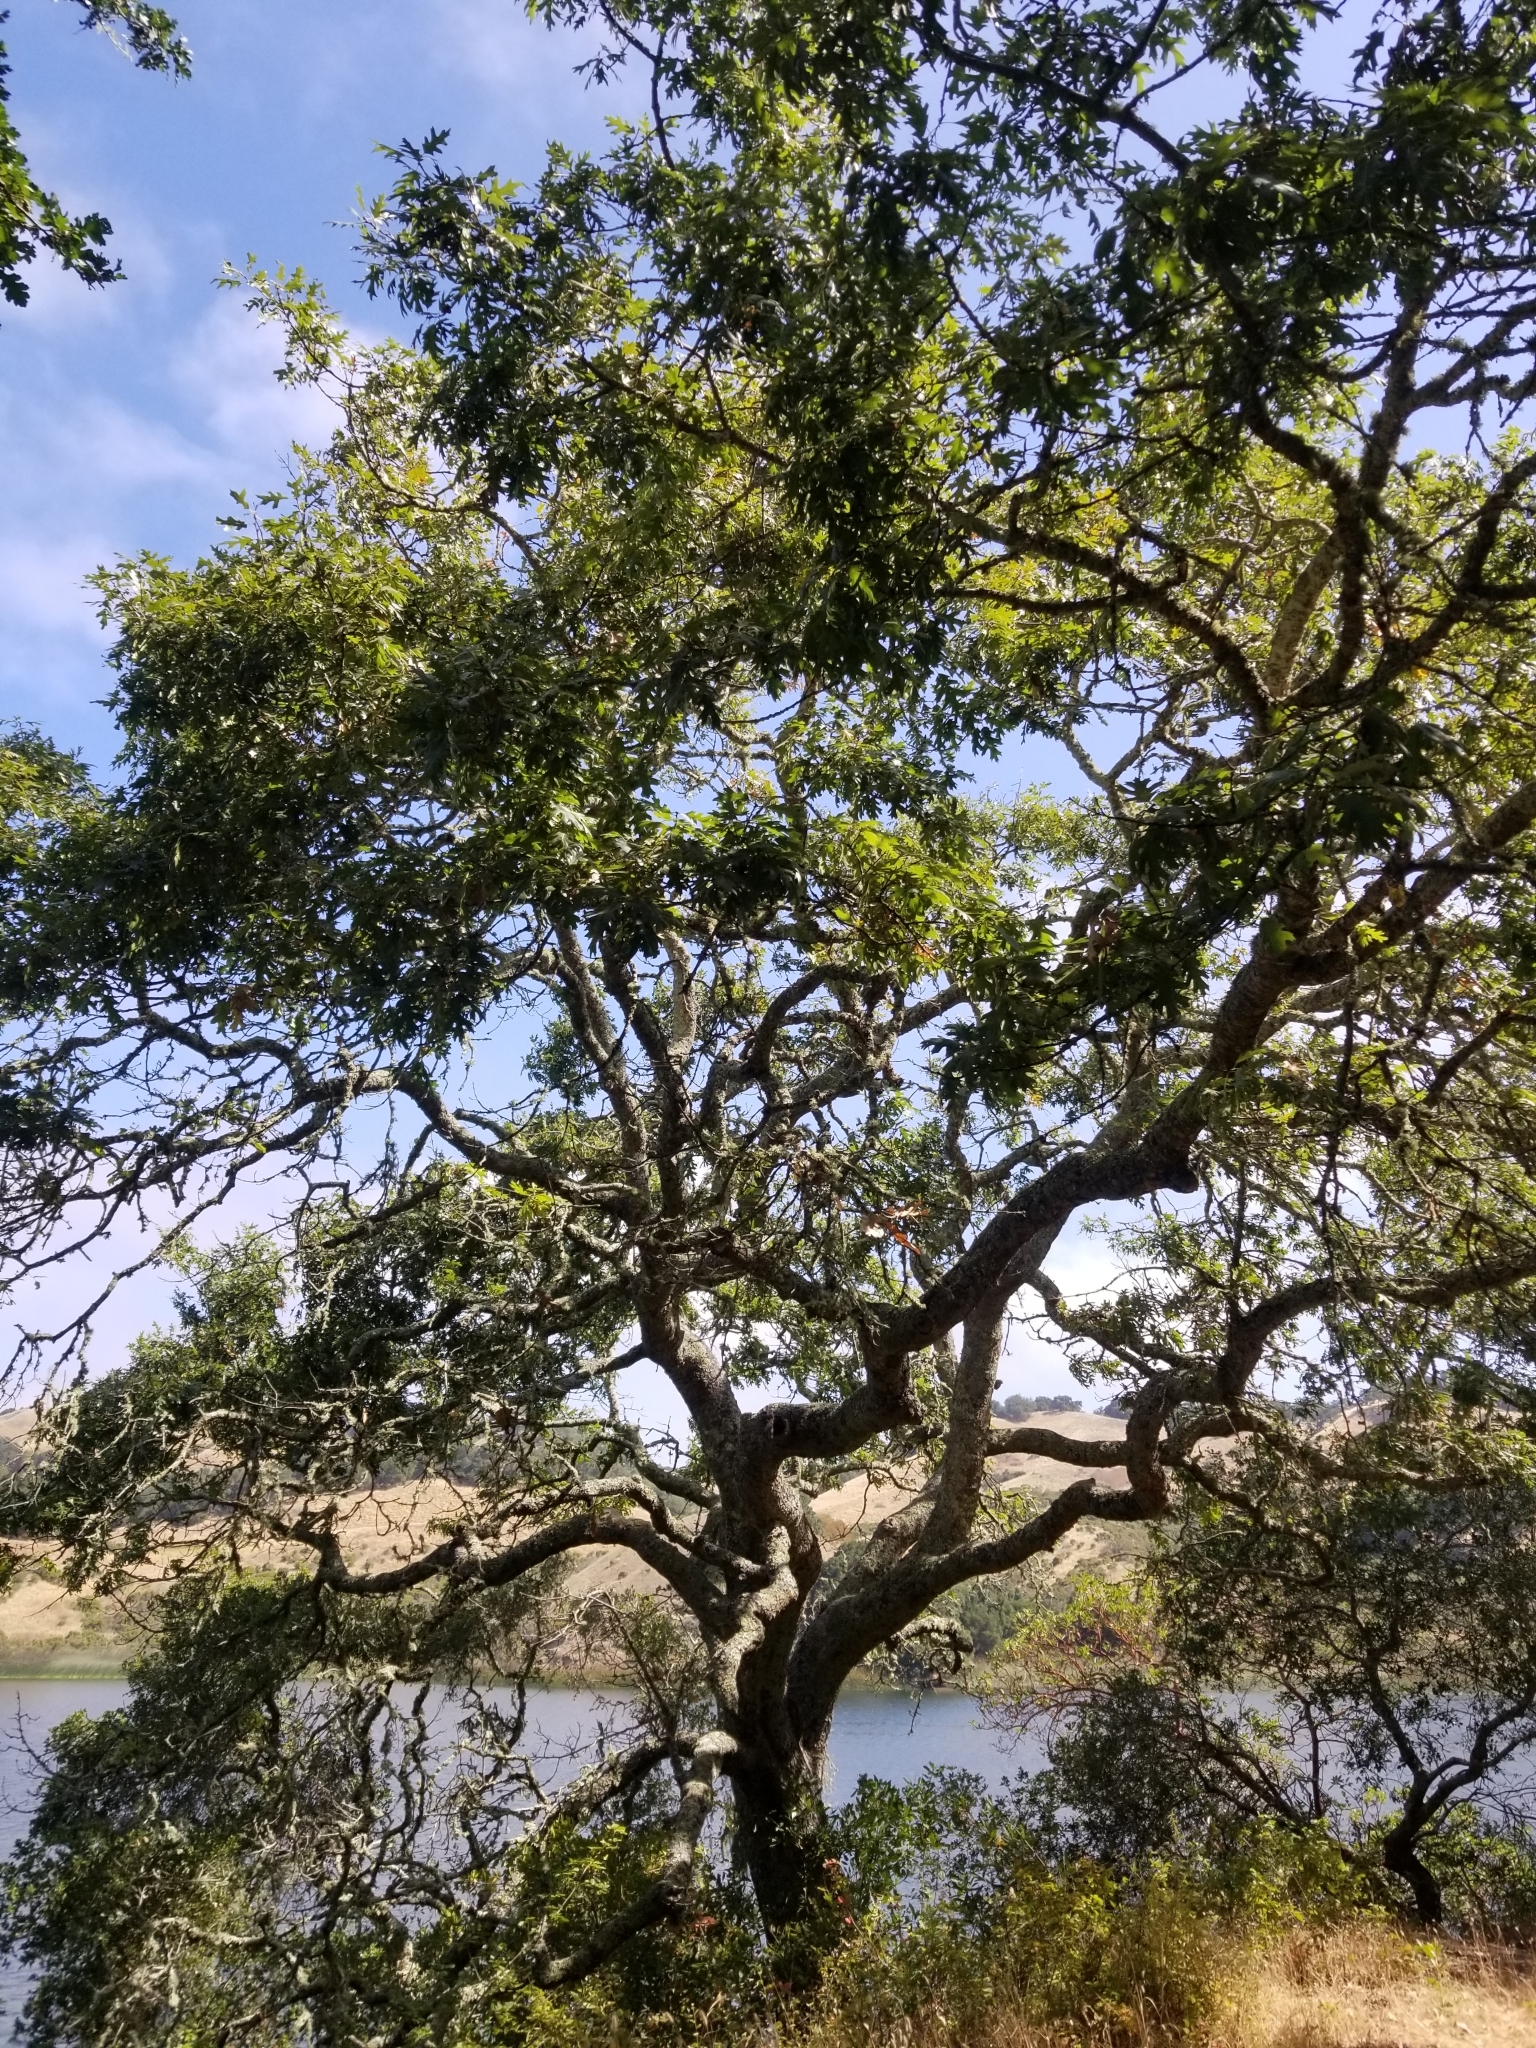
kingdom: Plantae
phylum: Tracheophyta
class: Magnoliopsida
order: Fagales
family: Fagaceae
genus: Quercus
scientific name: Quercus kelloggii
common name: California black oak
